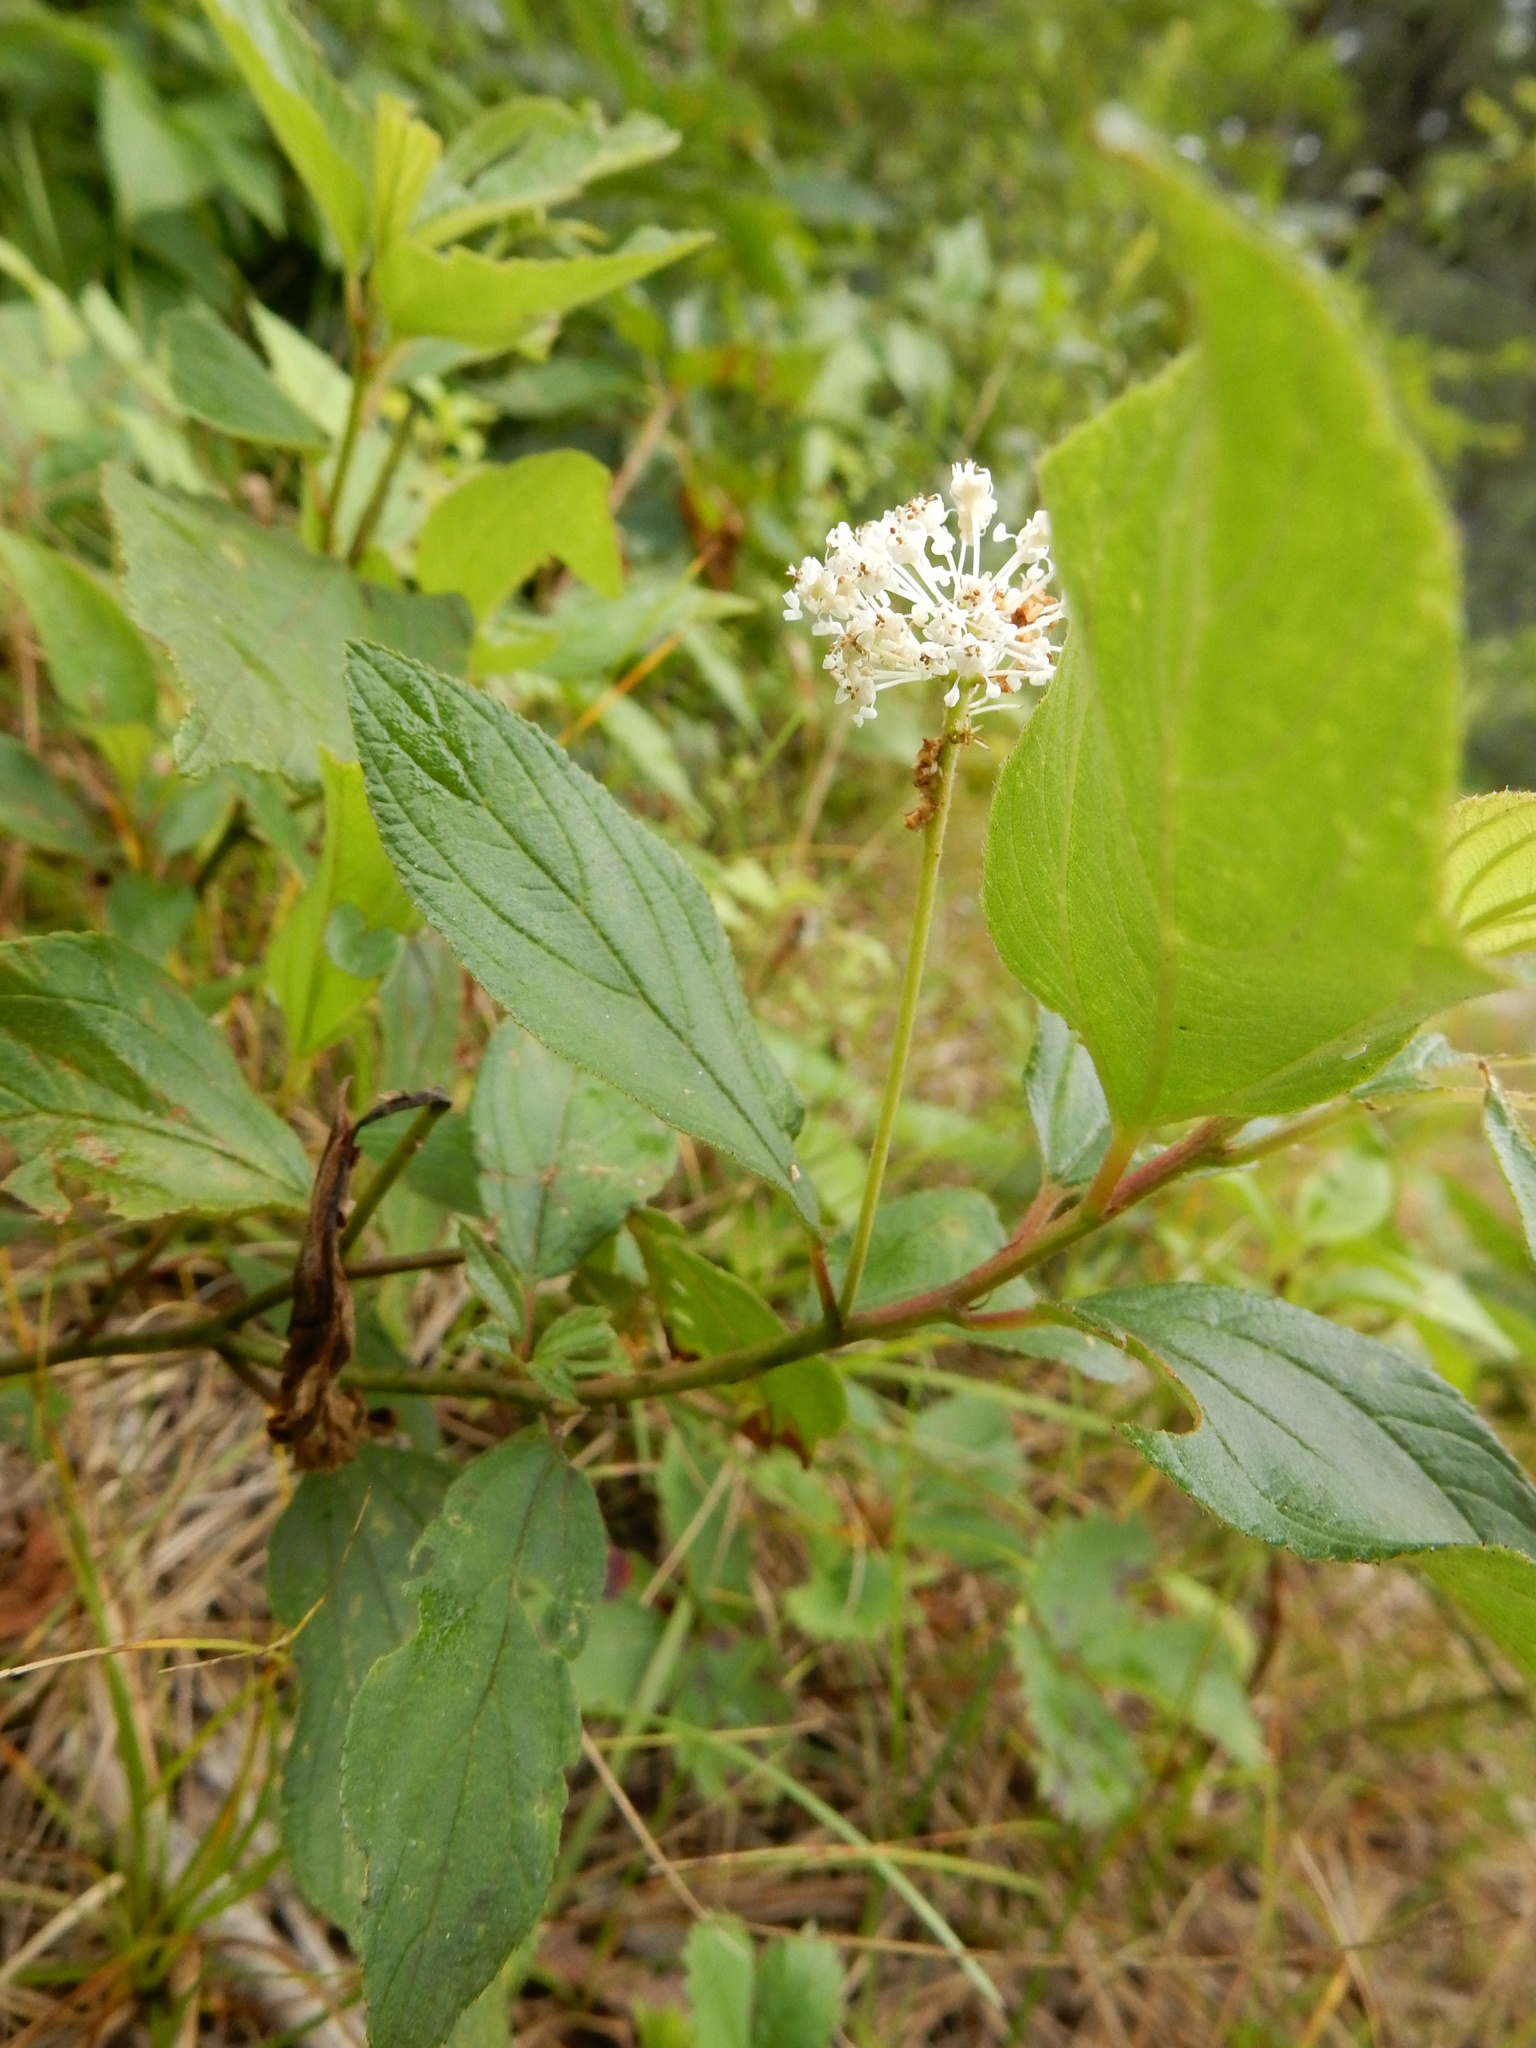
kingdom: Plantae
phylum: Tracheophyta
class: Magnoliopsida
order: Rosales
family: Rhamnaceae
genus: Ceanothus
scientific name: Ceanothus americanus
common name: Redroot
